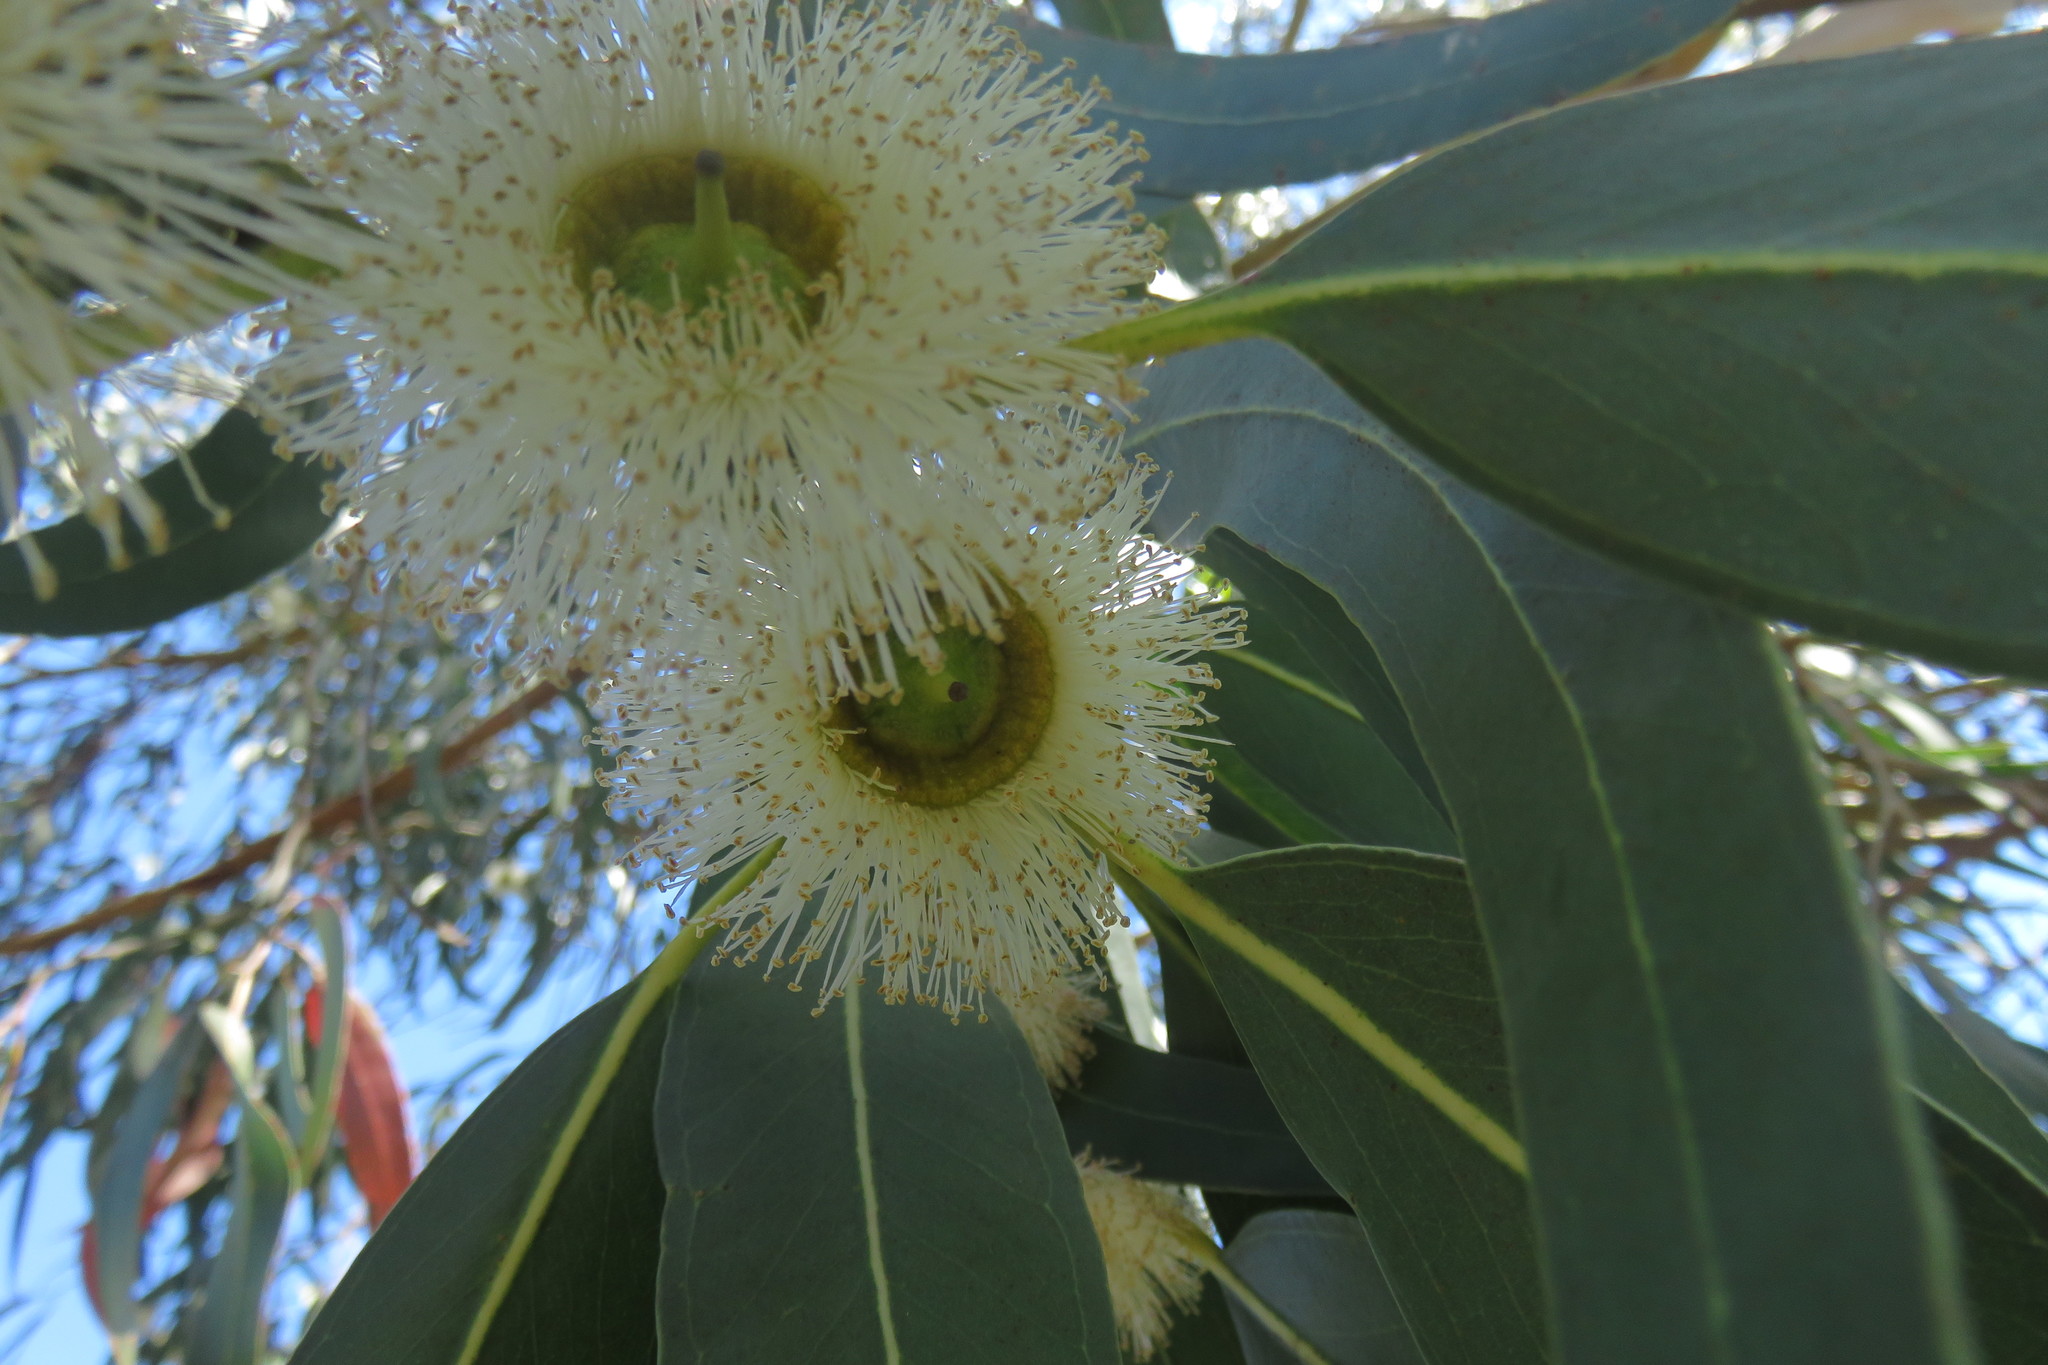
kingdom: Plantae
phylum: Tracheophyta
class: Magnoliopsida
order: Myrtales
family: Myrtaceae
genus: Eucalyptus
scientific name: Eucalyptus globulus
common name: Southern blue-gum
